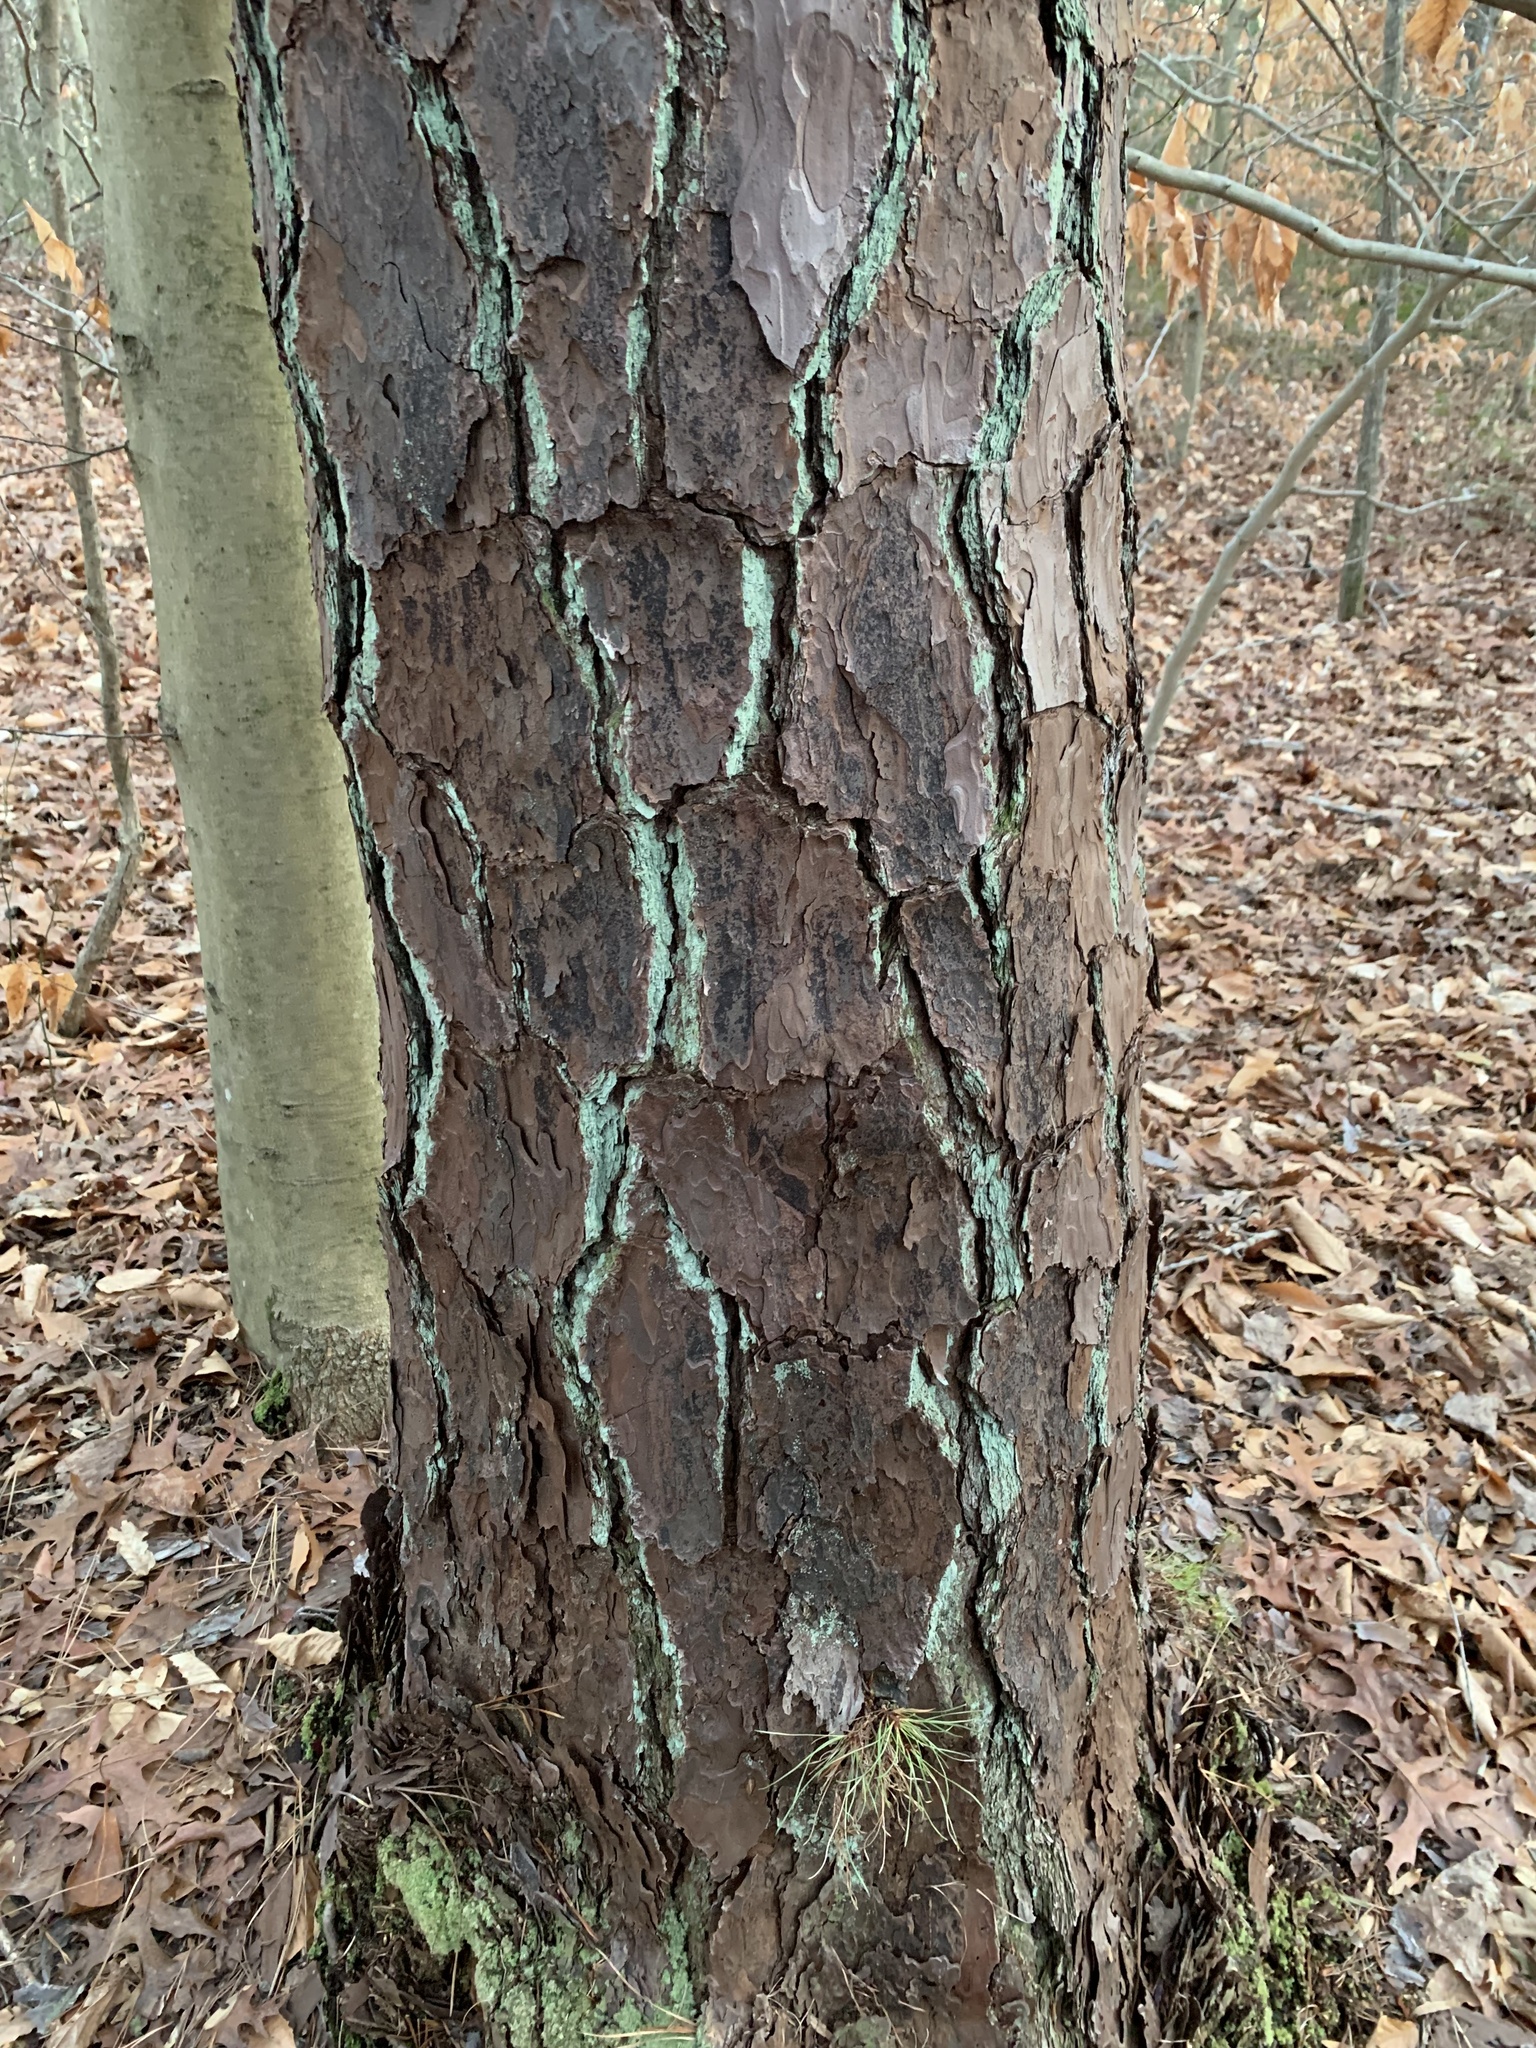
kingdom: Plantae
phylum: Tracheophyta
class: Pinopsida
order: Pinales
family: Pinaceae
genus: Pinus
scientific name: Pinus rigida
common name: Pitch pine
